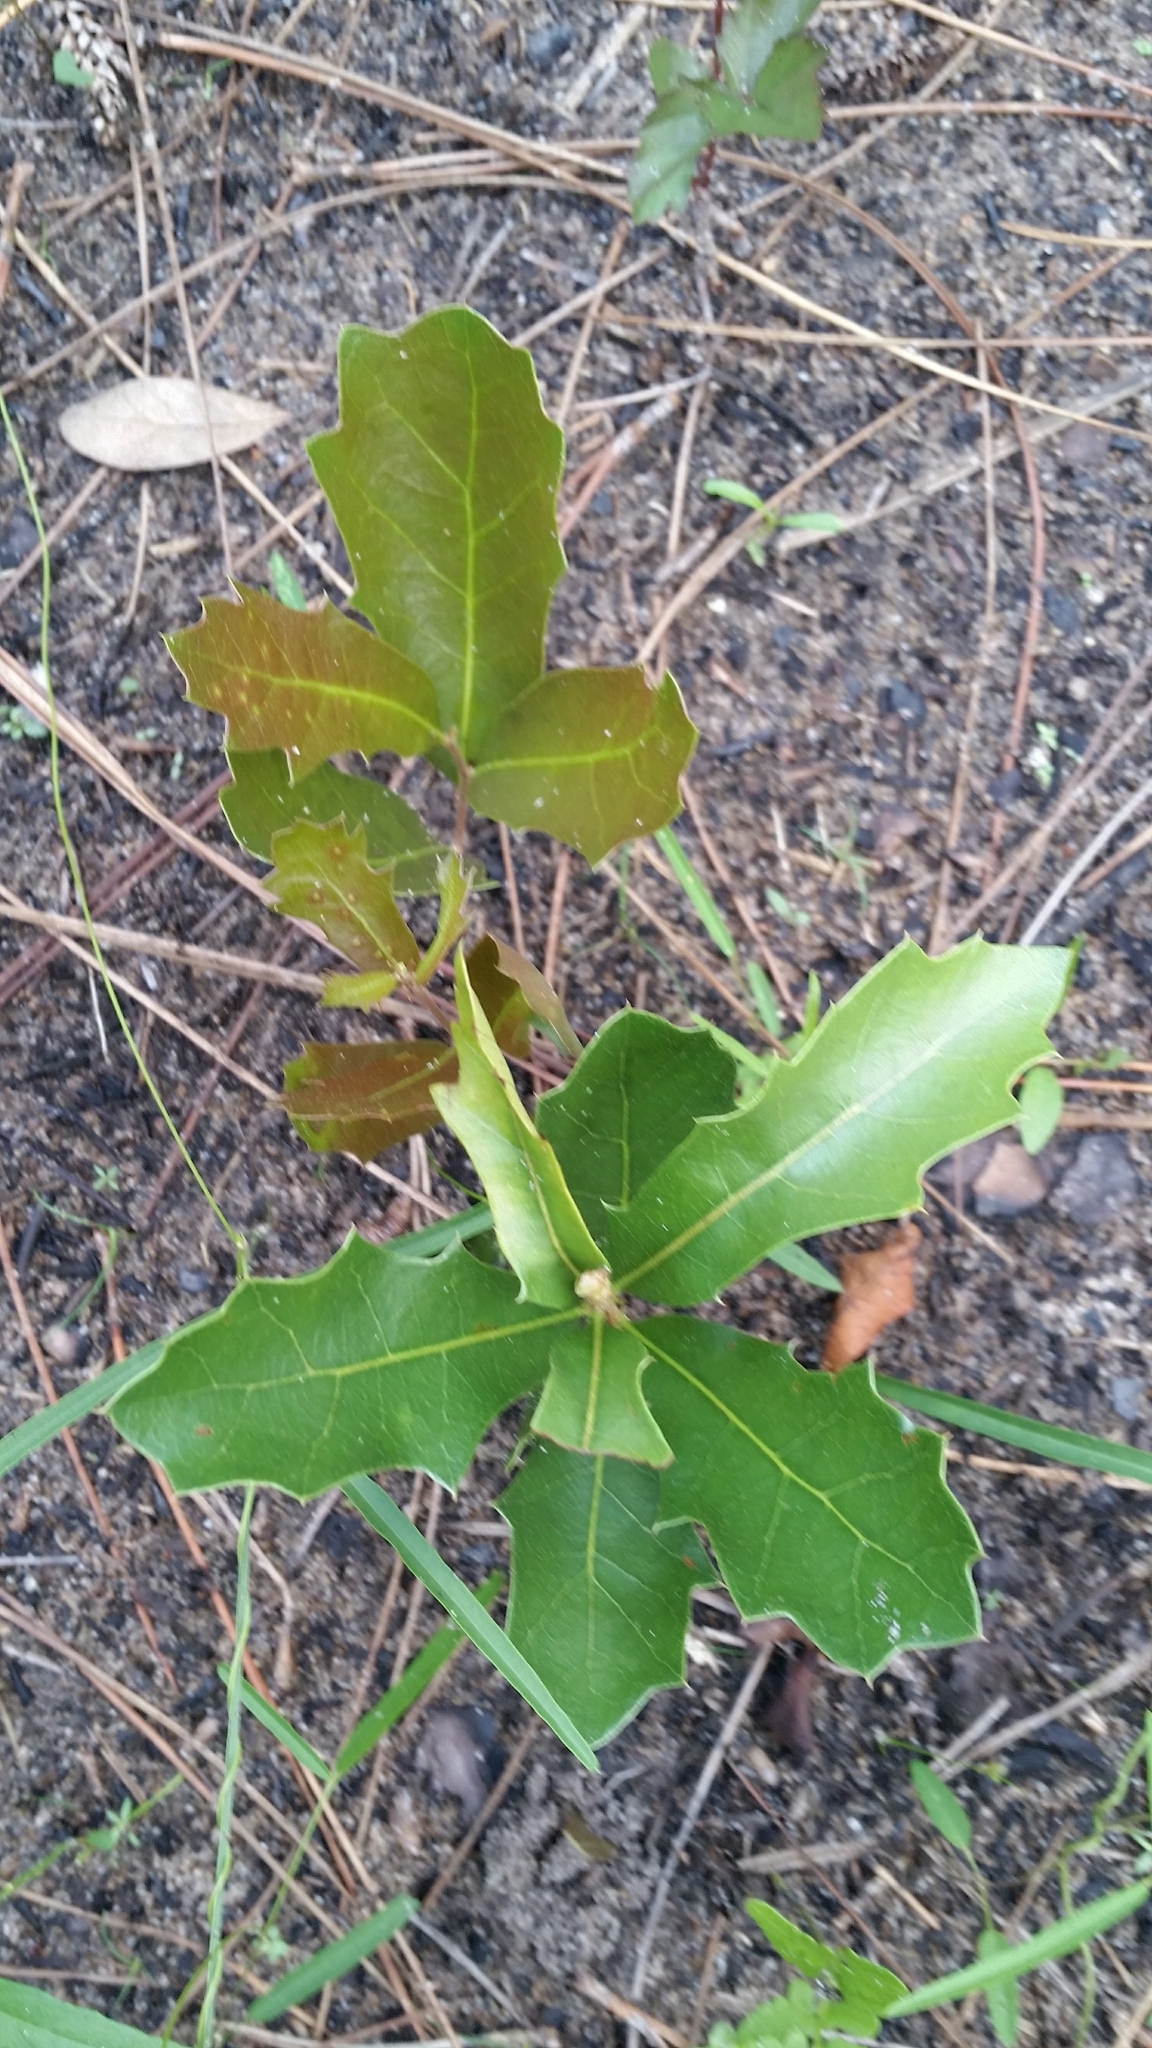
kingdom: Plantae
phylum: Tracheophyta
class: Magnoliopsida
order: Fagales
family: Fagaceae
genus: Quercus
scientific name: Quercus minima
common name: Dwarf live oak
